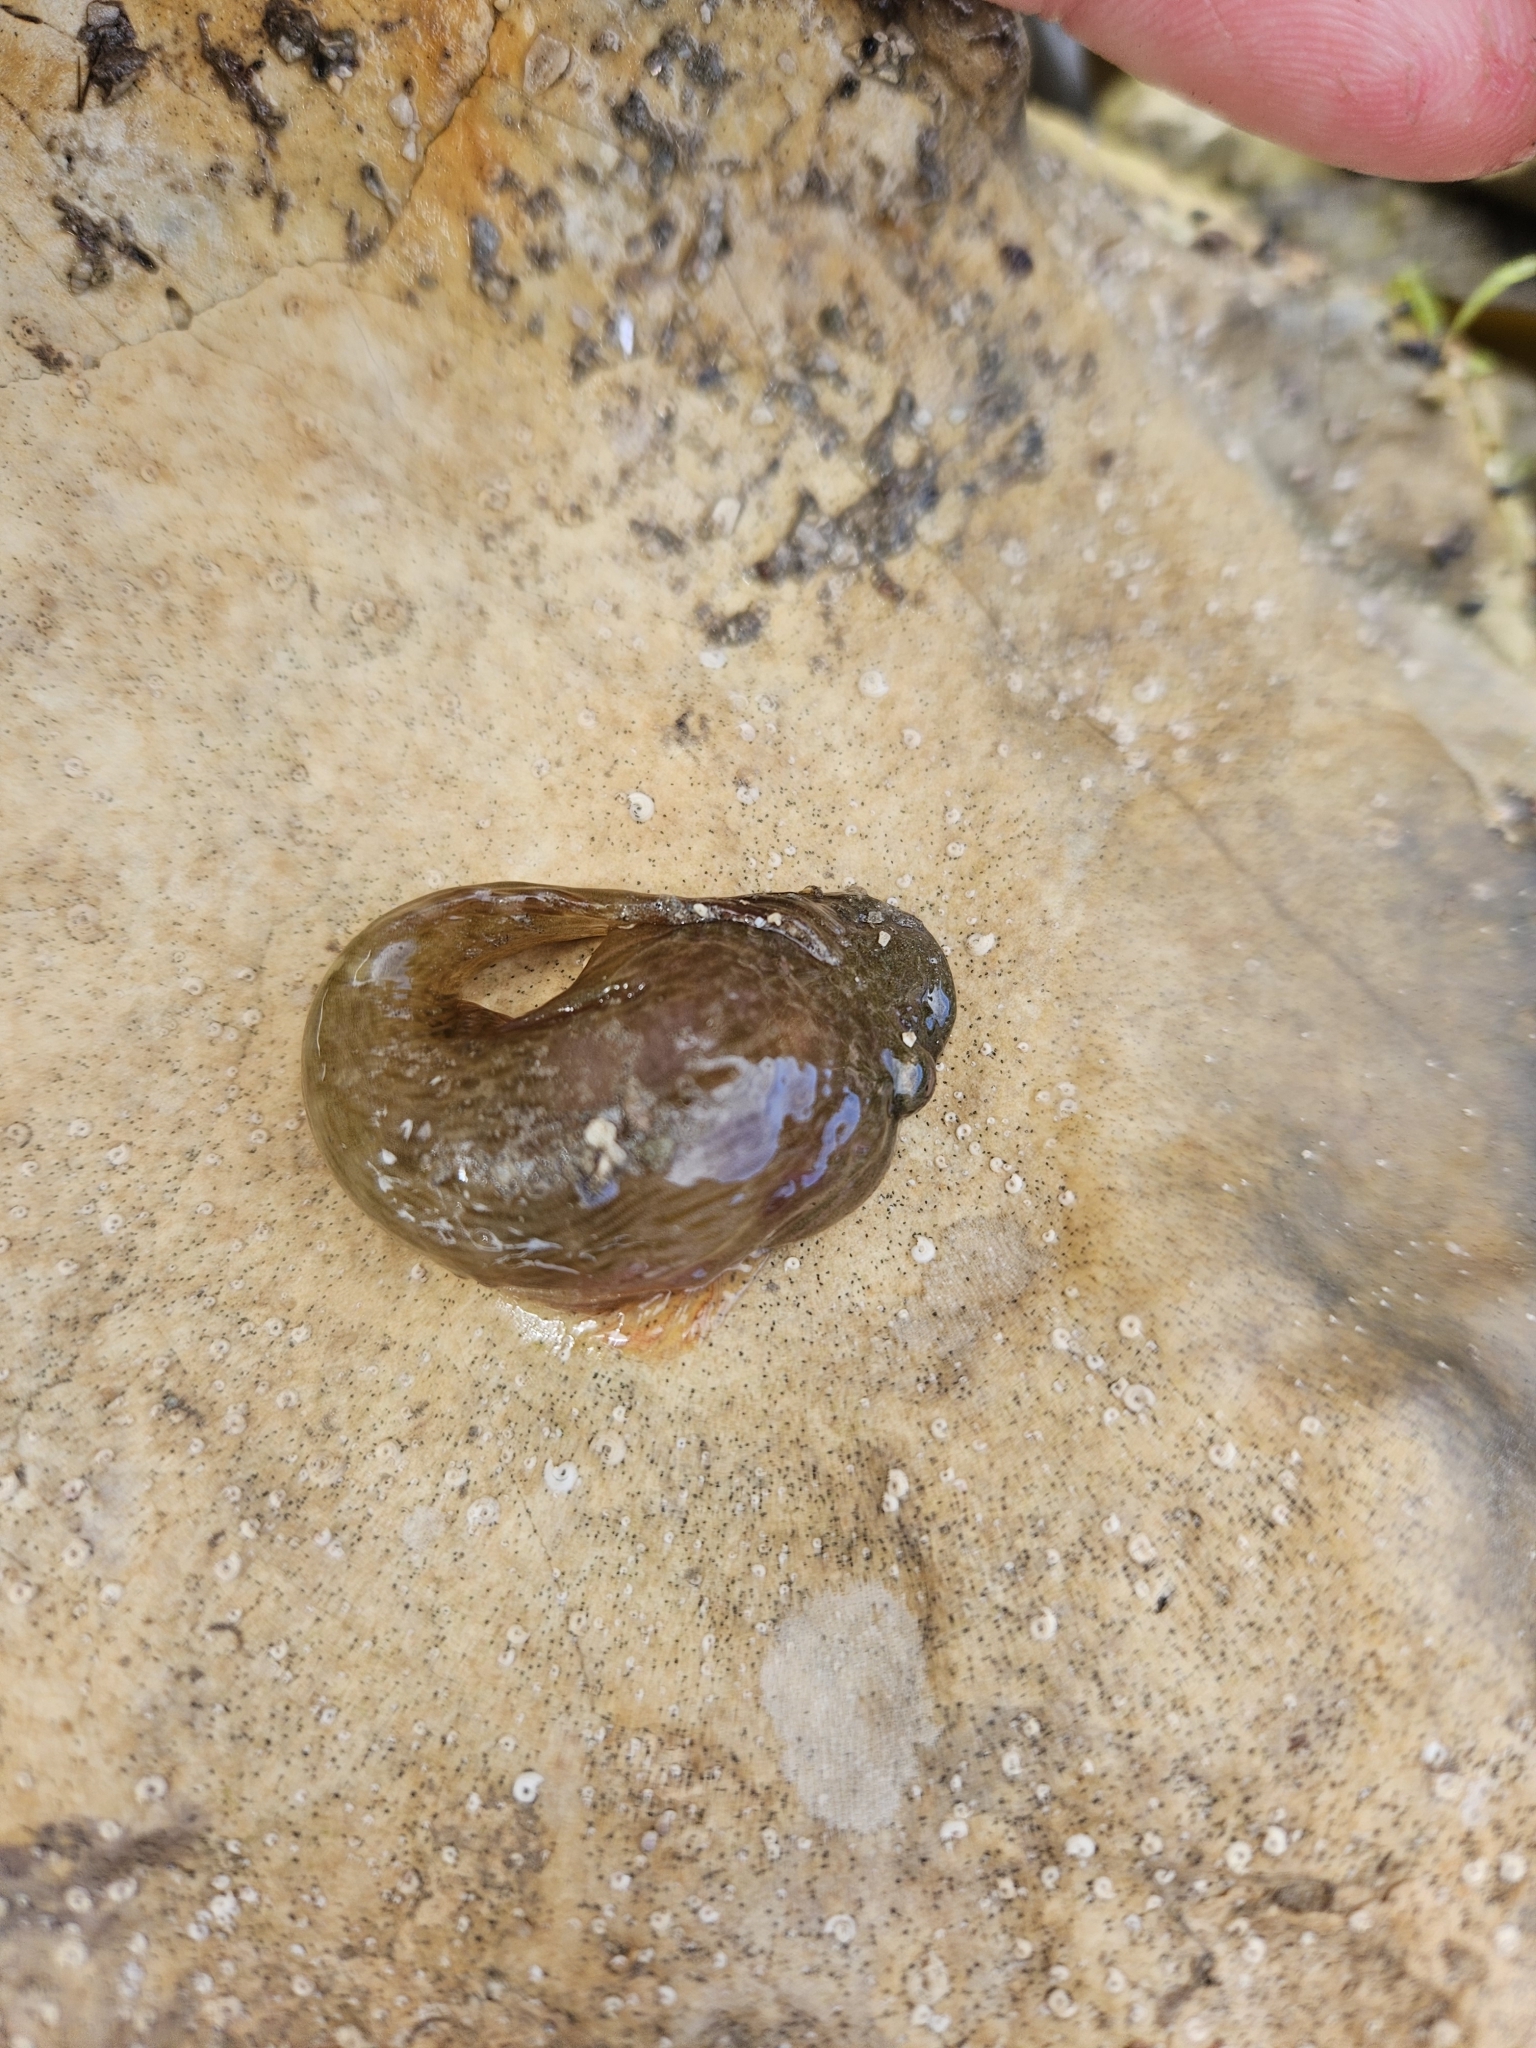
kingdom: Animalia
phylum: Chordata
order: Gobiesociformes
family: Gobiesocidae
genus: Trachelochismus
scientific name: Trachelochismus pinnulatus
